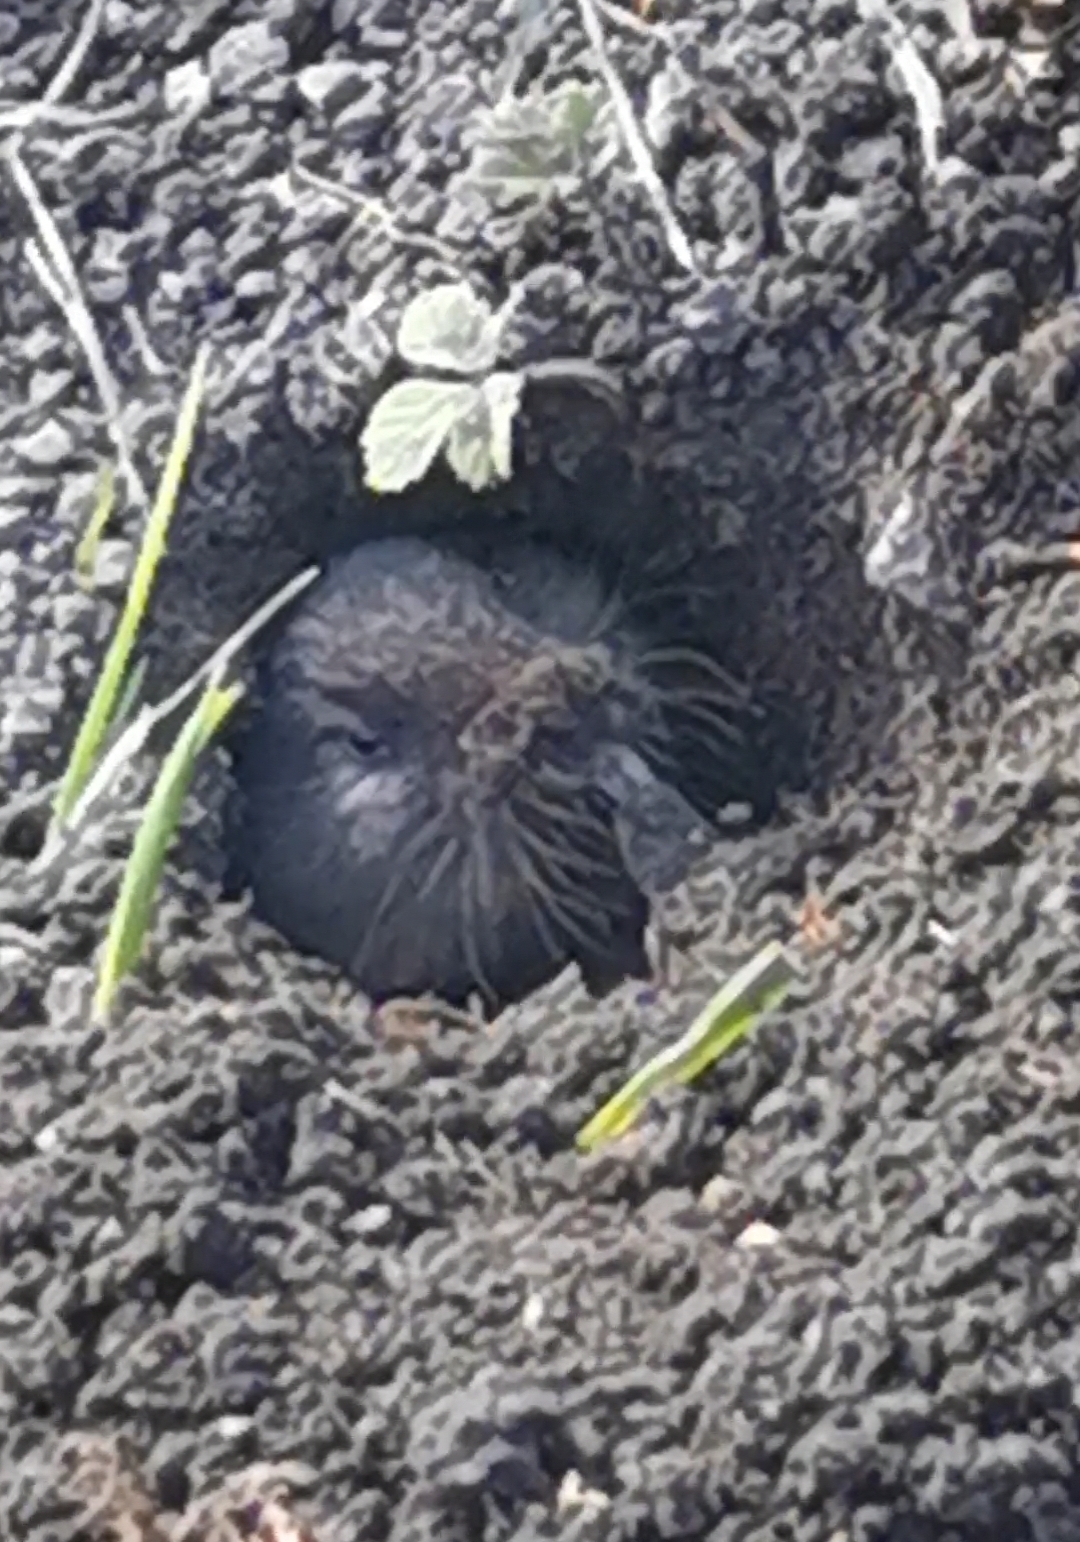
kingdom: Animalia
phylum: Chordata
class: Mammalia
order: Rodentia
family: Cricetidae
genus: Ellobius
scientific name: Ellobius talpinus
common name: Northern mole vole
